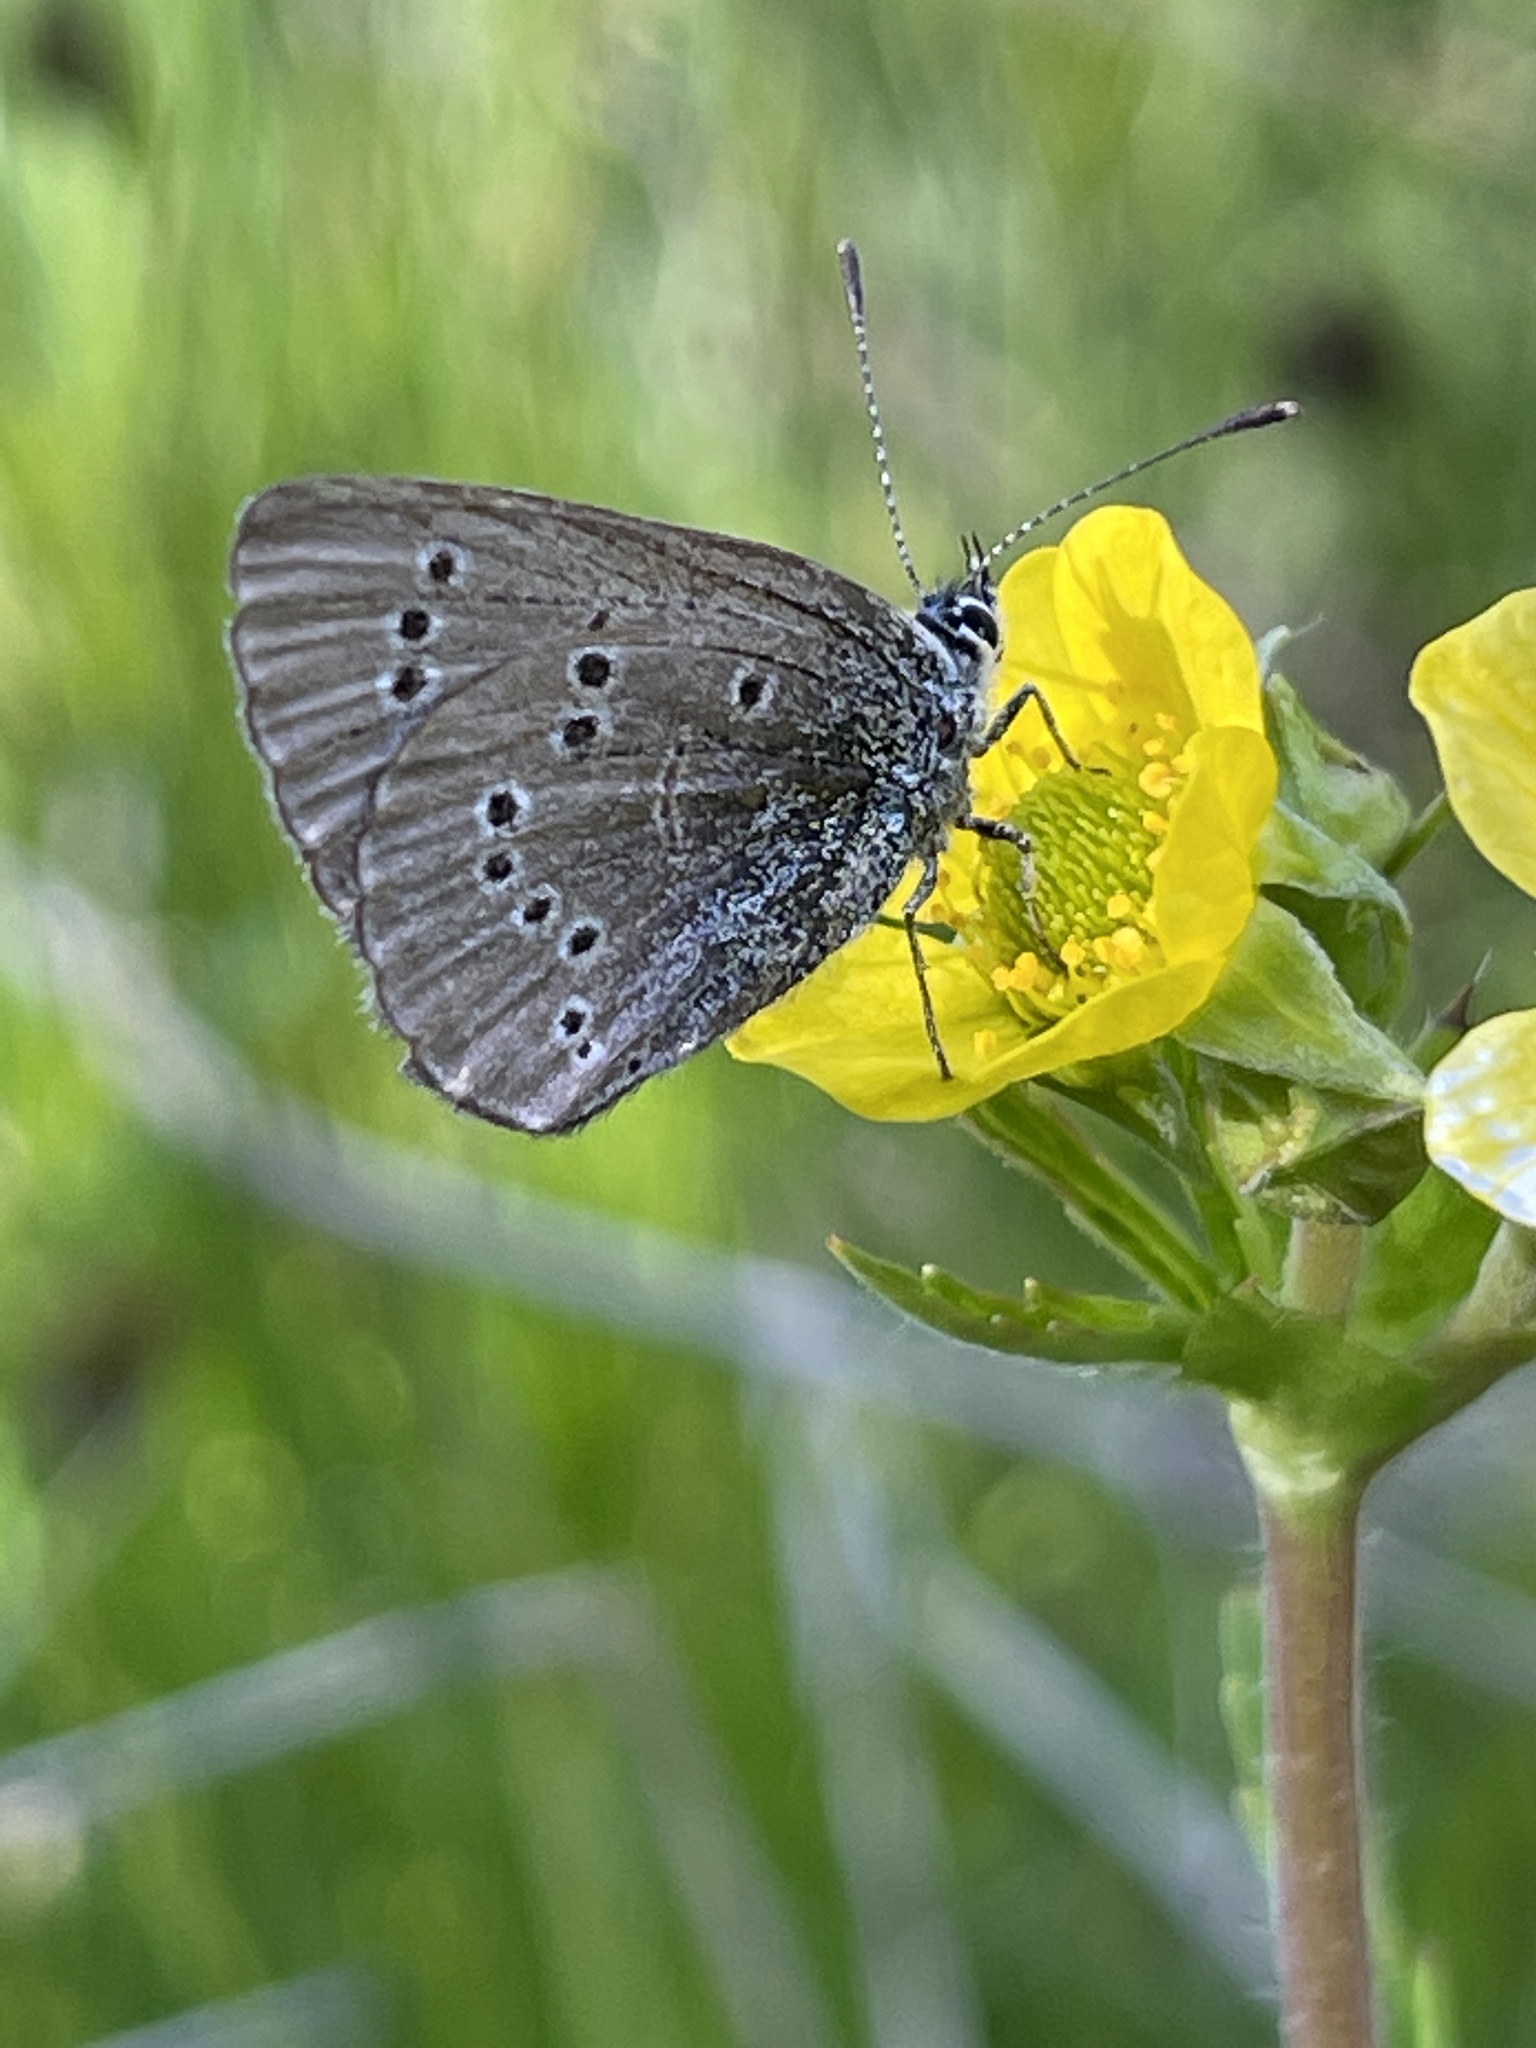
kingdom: Animalia
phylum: Arthropoda
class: Insecta
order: Lepidoptera
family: Lycaenidae
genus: Glaucopsyche
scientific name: Glaucopsyche lygdamus
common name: Silvery blue
